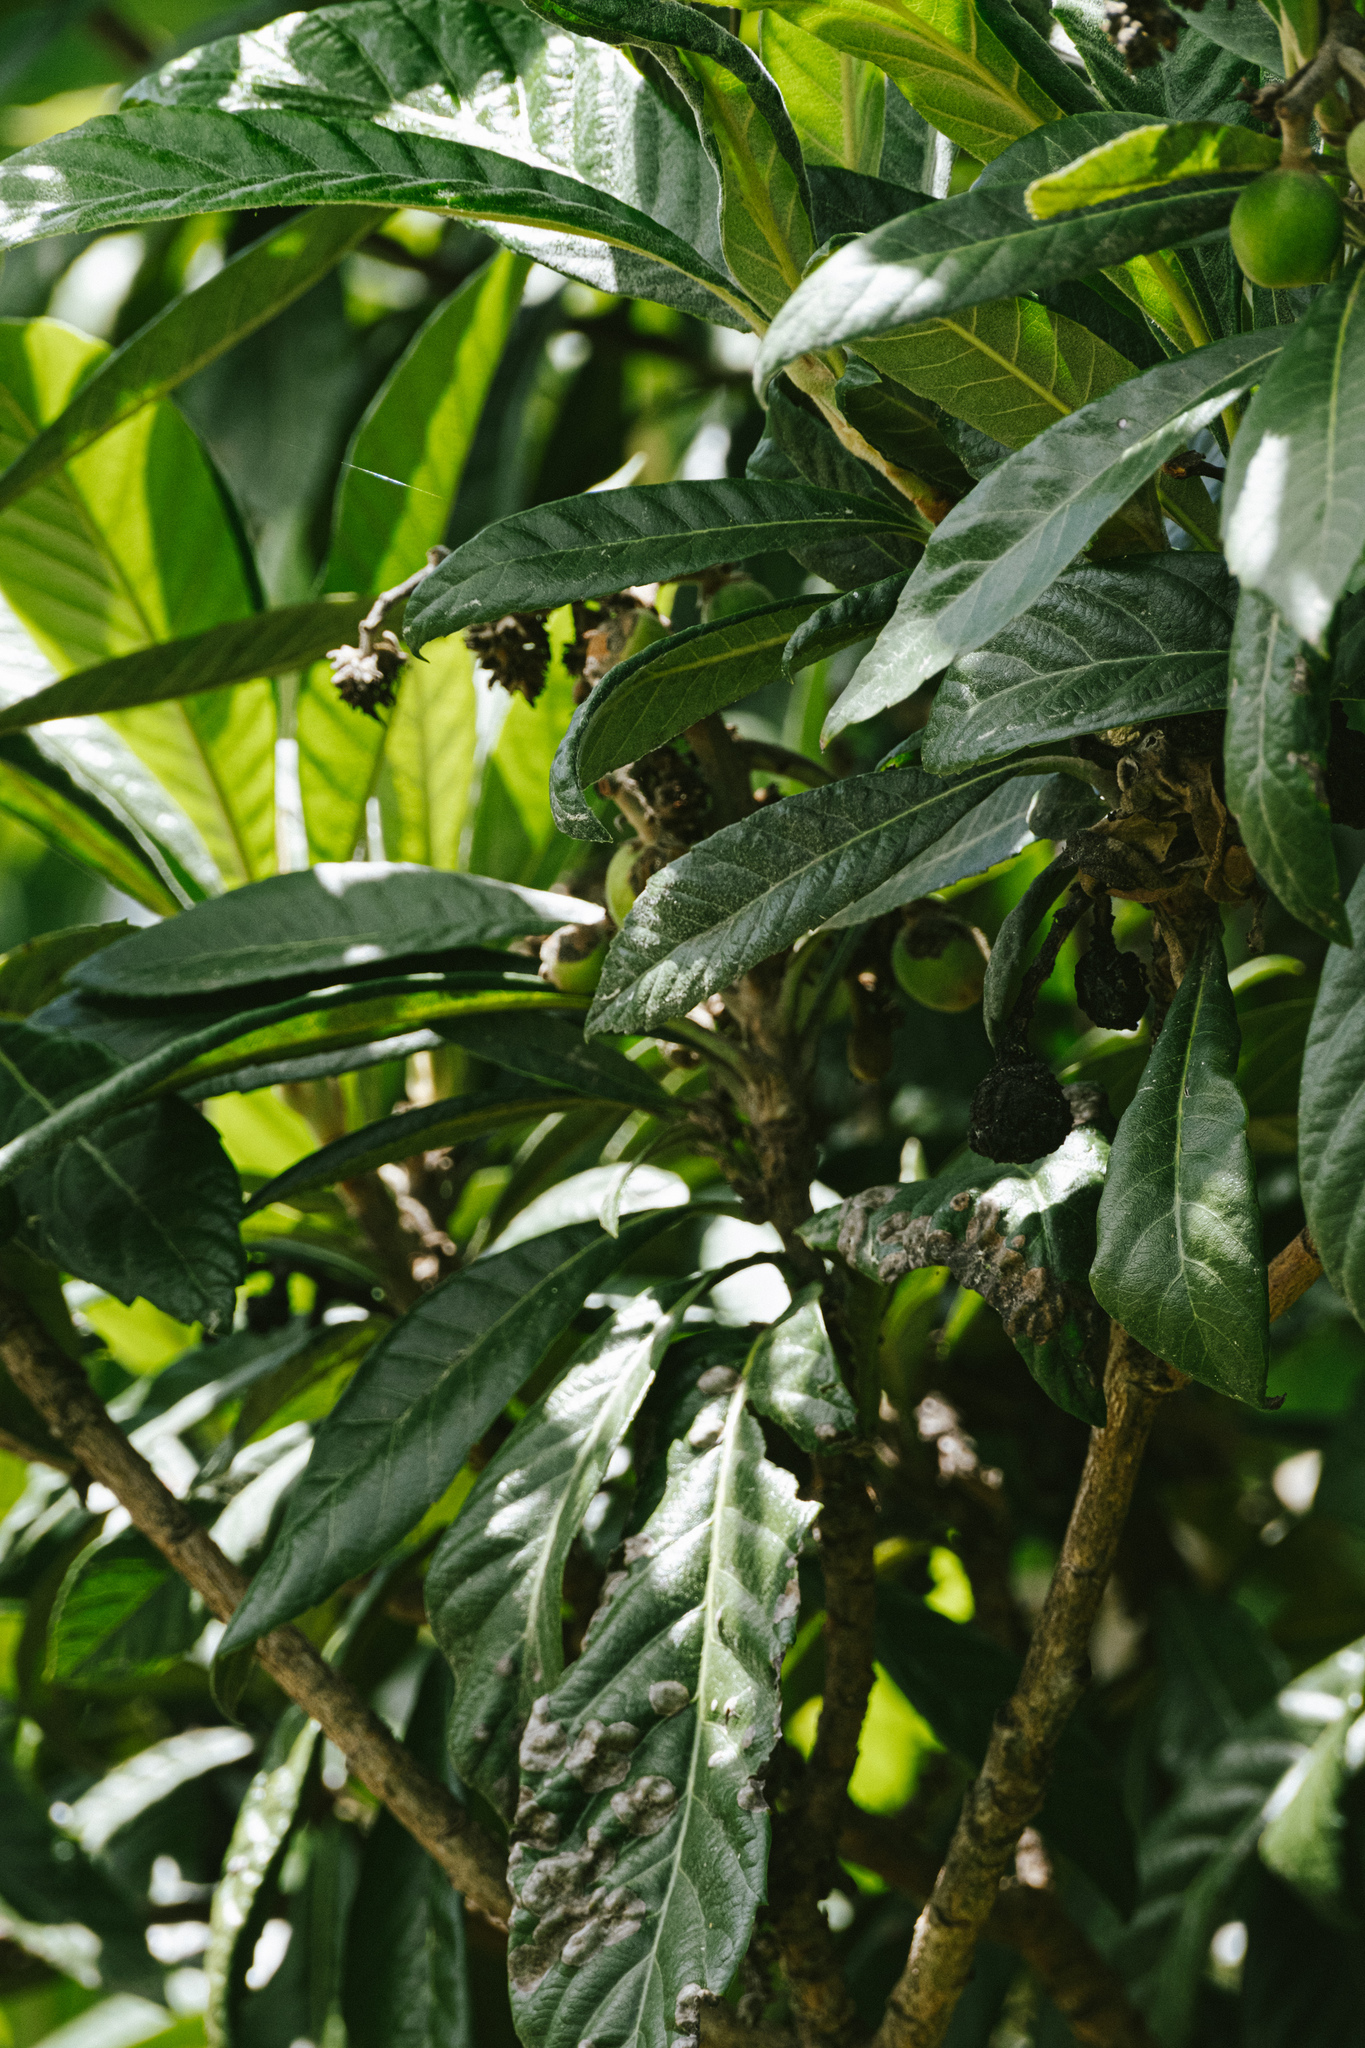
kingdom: Plantae
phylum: Tracheophyta
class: Magnoliopsida
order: Rosales
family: Rosaceae
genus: Rhaphiolepis
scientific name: Rhaphiolepis bibas
